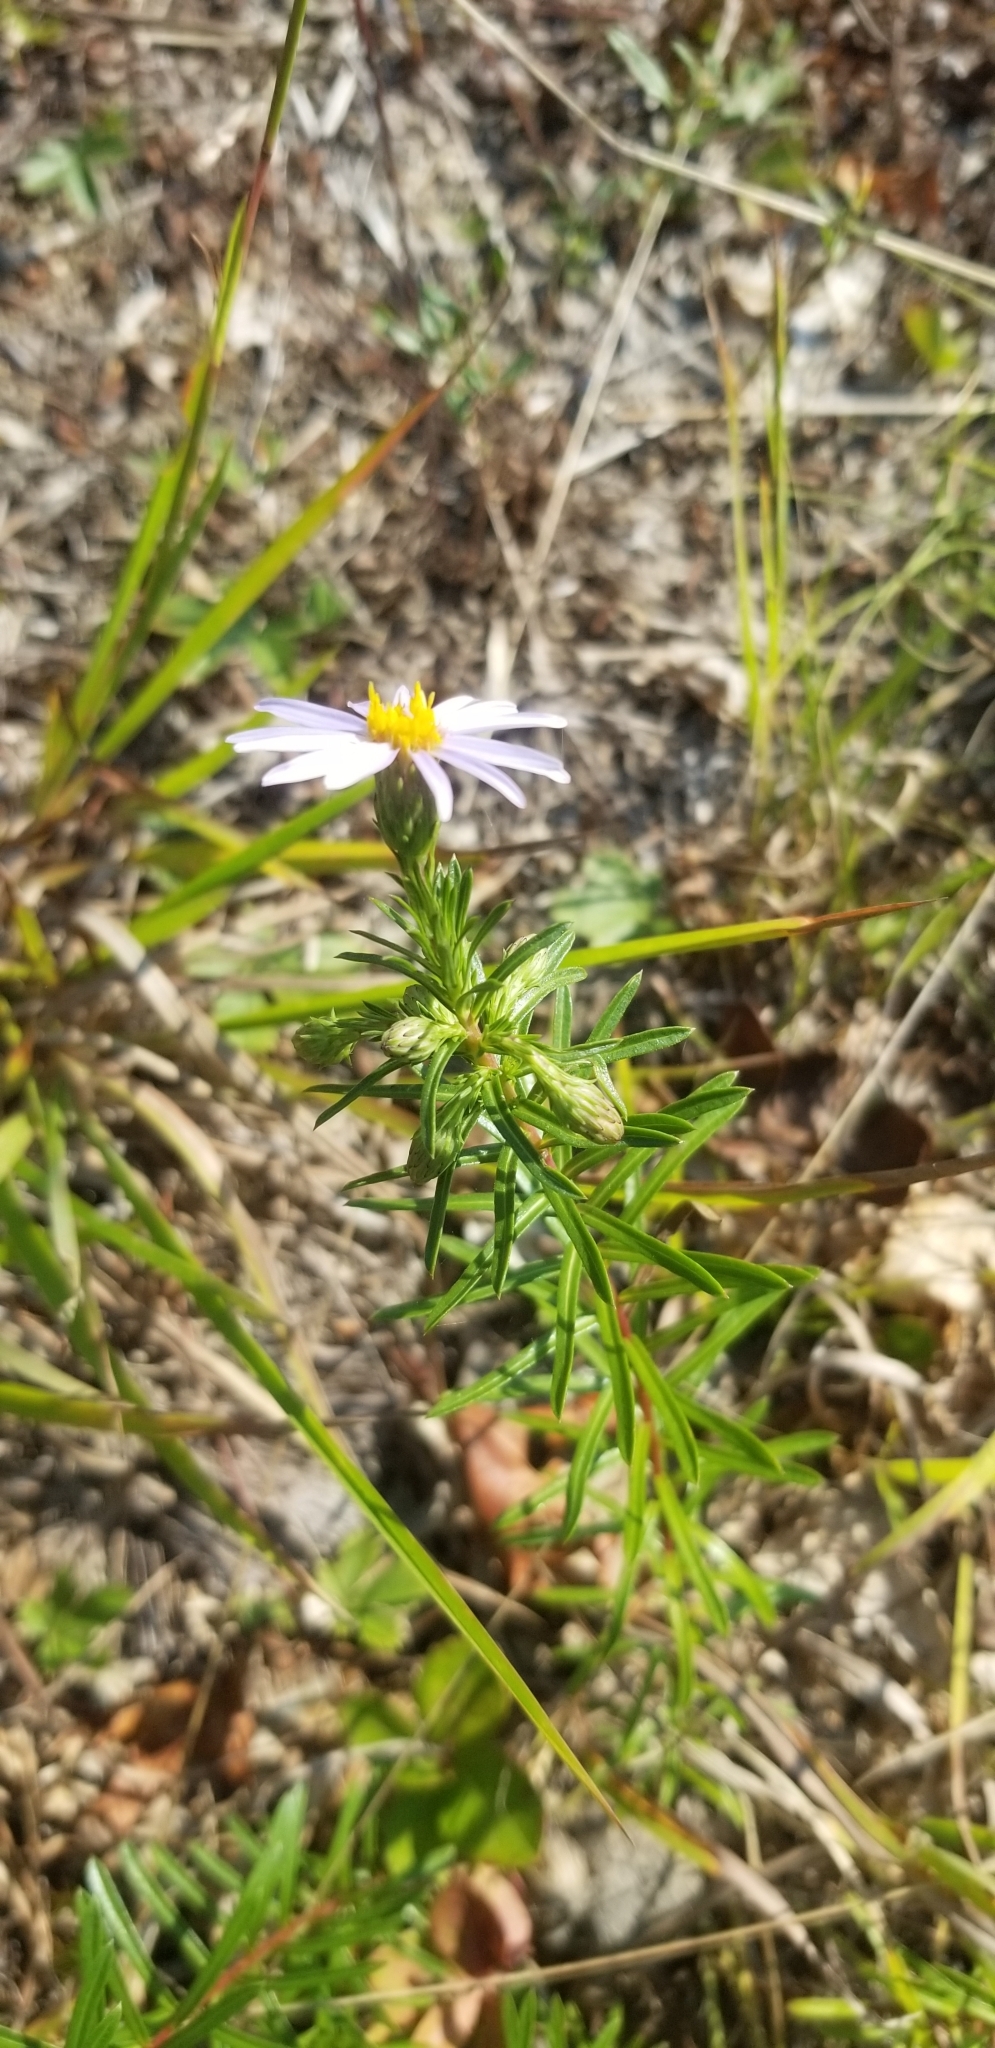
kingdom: Plantae
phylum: Tracheophyta
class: Magnoliopsida
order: Asterales
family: Asteraceae
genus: Ionactis
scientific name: Ionactis linariifolia
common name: Flax-leaf aster
